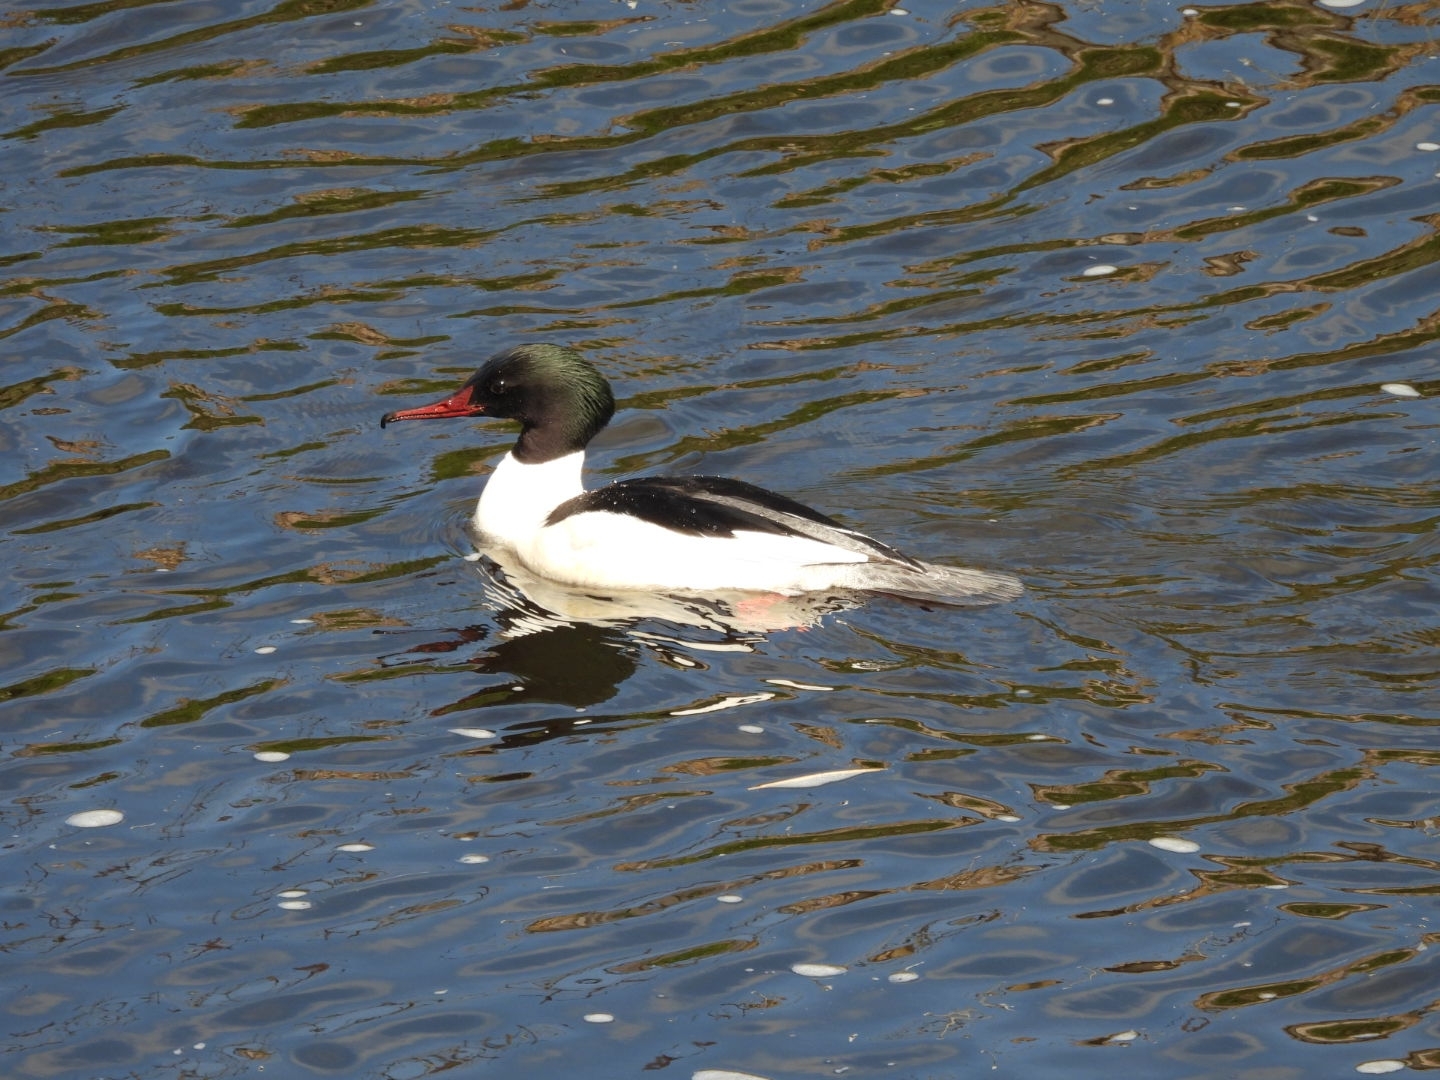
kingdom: Animalia
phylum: Chordata
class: Aves
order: Anseriformes
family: Anatidae
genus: Mergus
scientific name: Mergus merganser
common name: Common merganser
